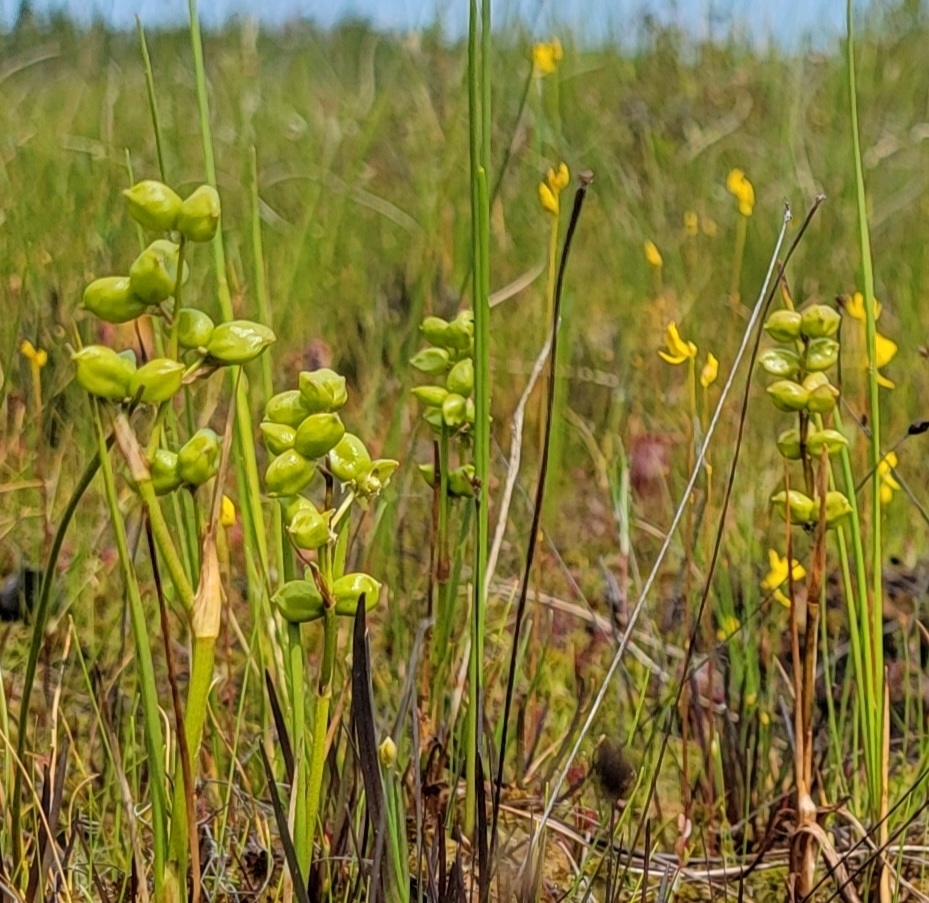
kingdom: Plantae
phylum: Tracheophyta
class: Liliopsida
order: Alismatales
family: Scheuchzeriaceae
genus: Scheuchzeria
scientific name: Scheuchzeria palustris
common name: Rannoch-rush
